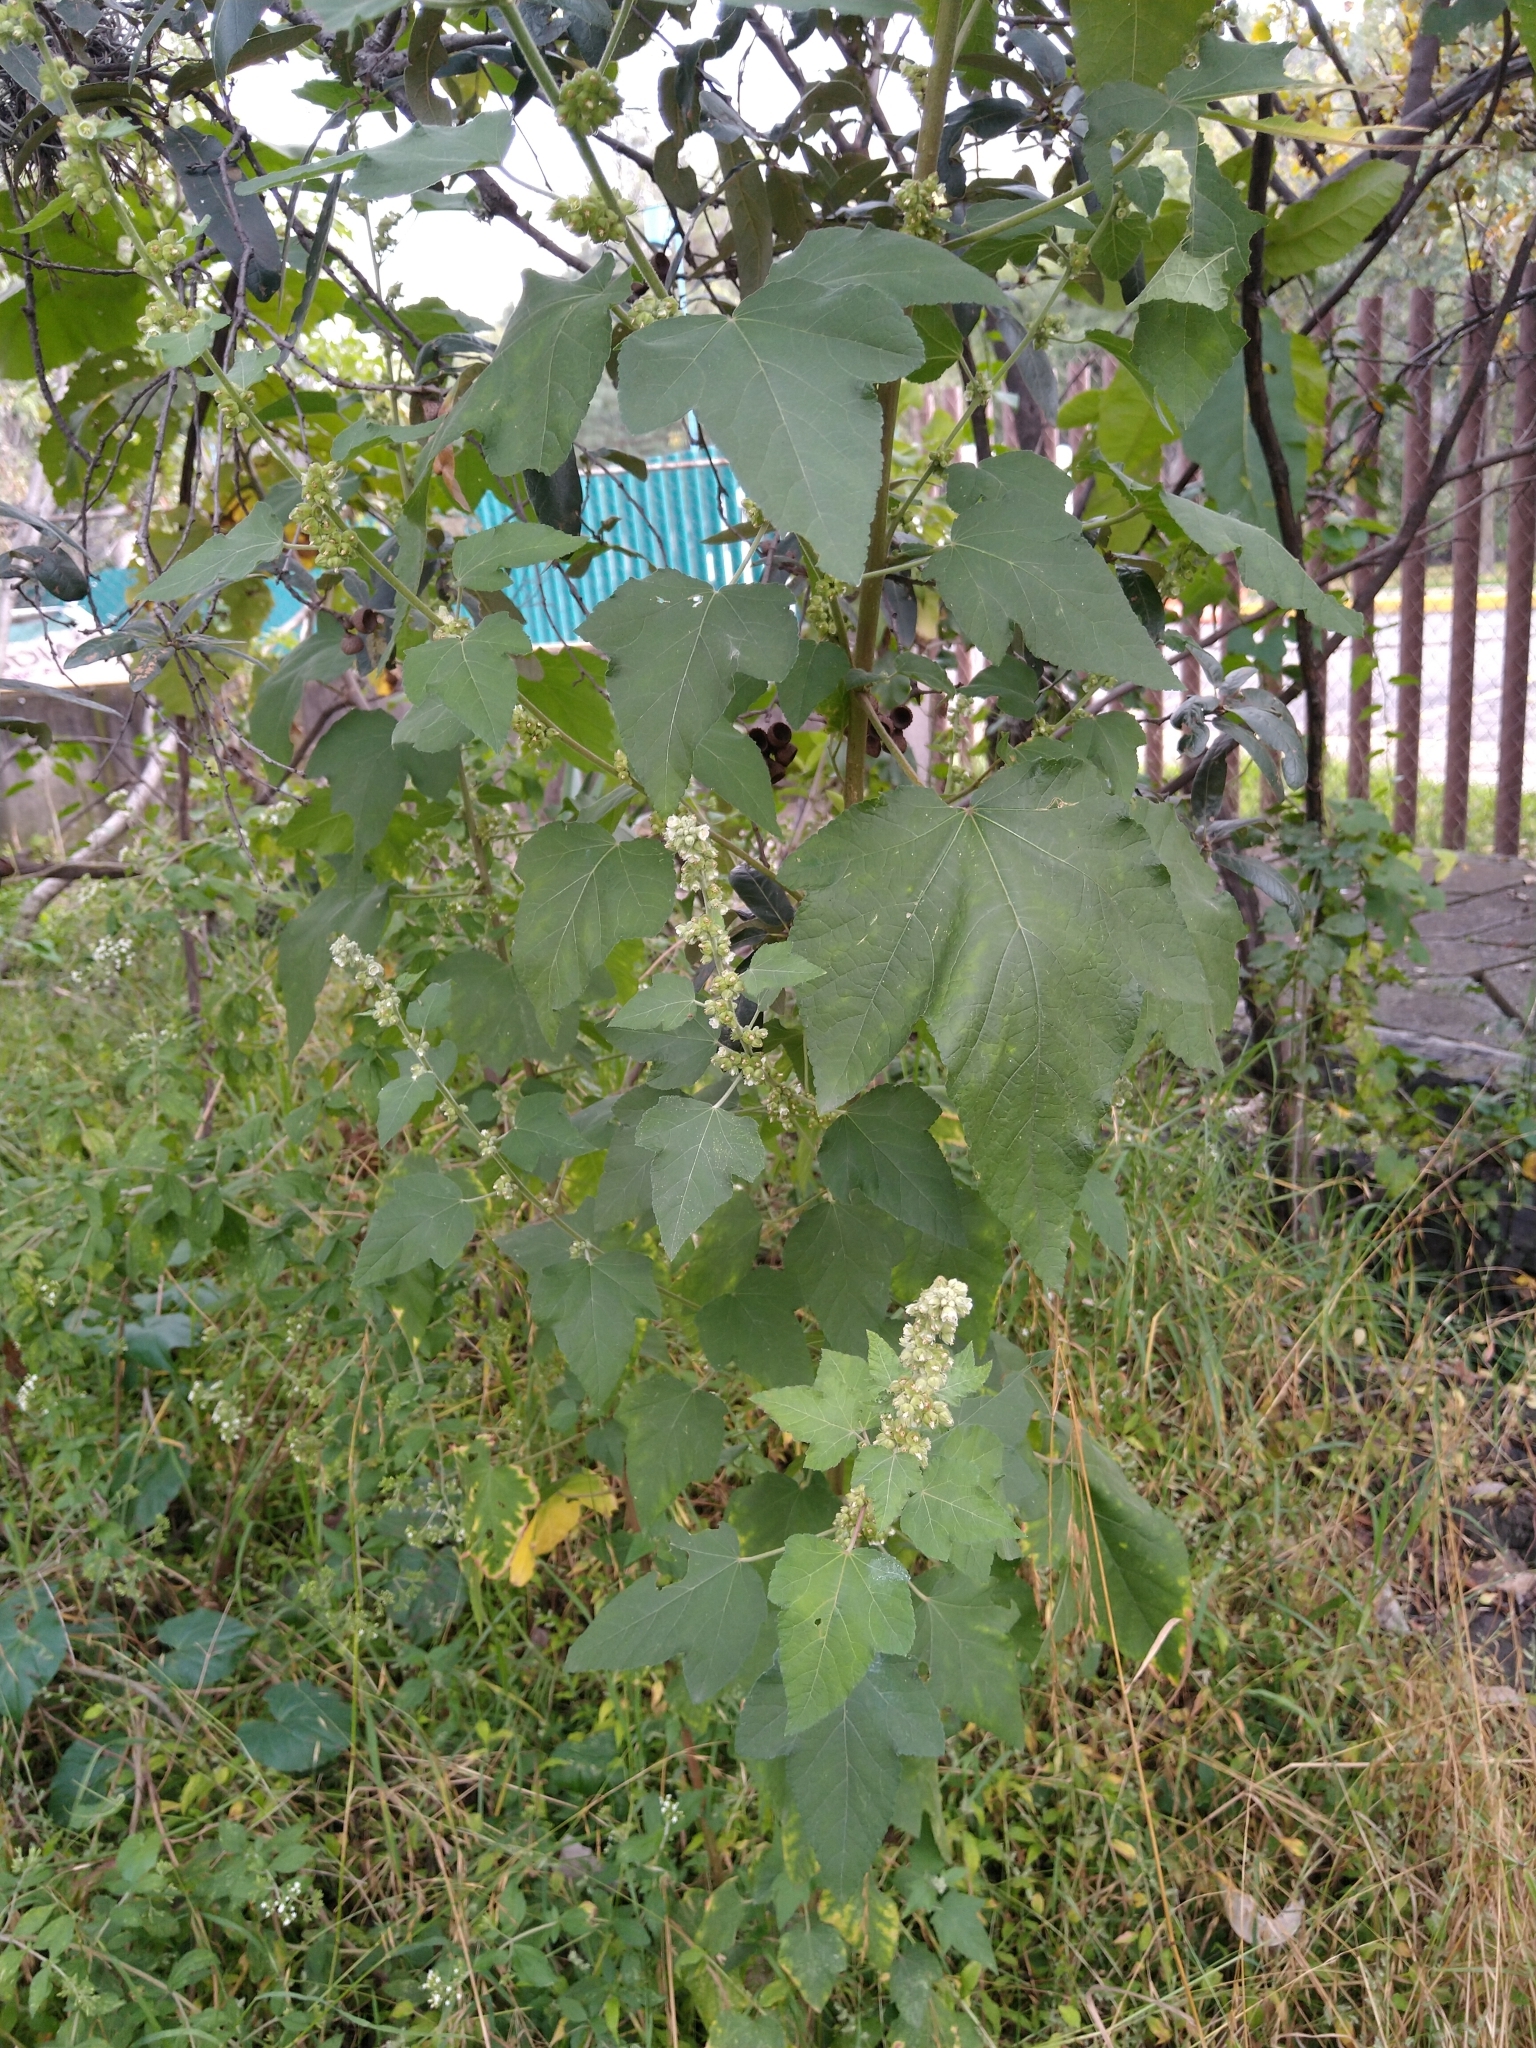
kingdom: Plantae
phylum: Tracheophyta
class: Magnoliopsida
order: Malvales
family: Malvaceae
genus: Kearnemalvastrum
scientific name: Kearnemalvastrum subtriflorum
